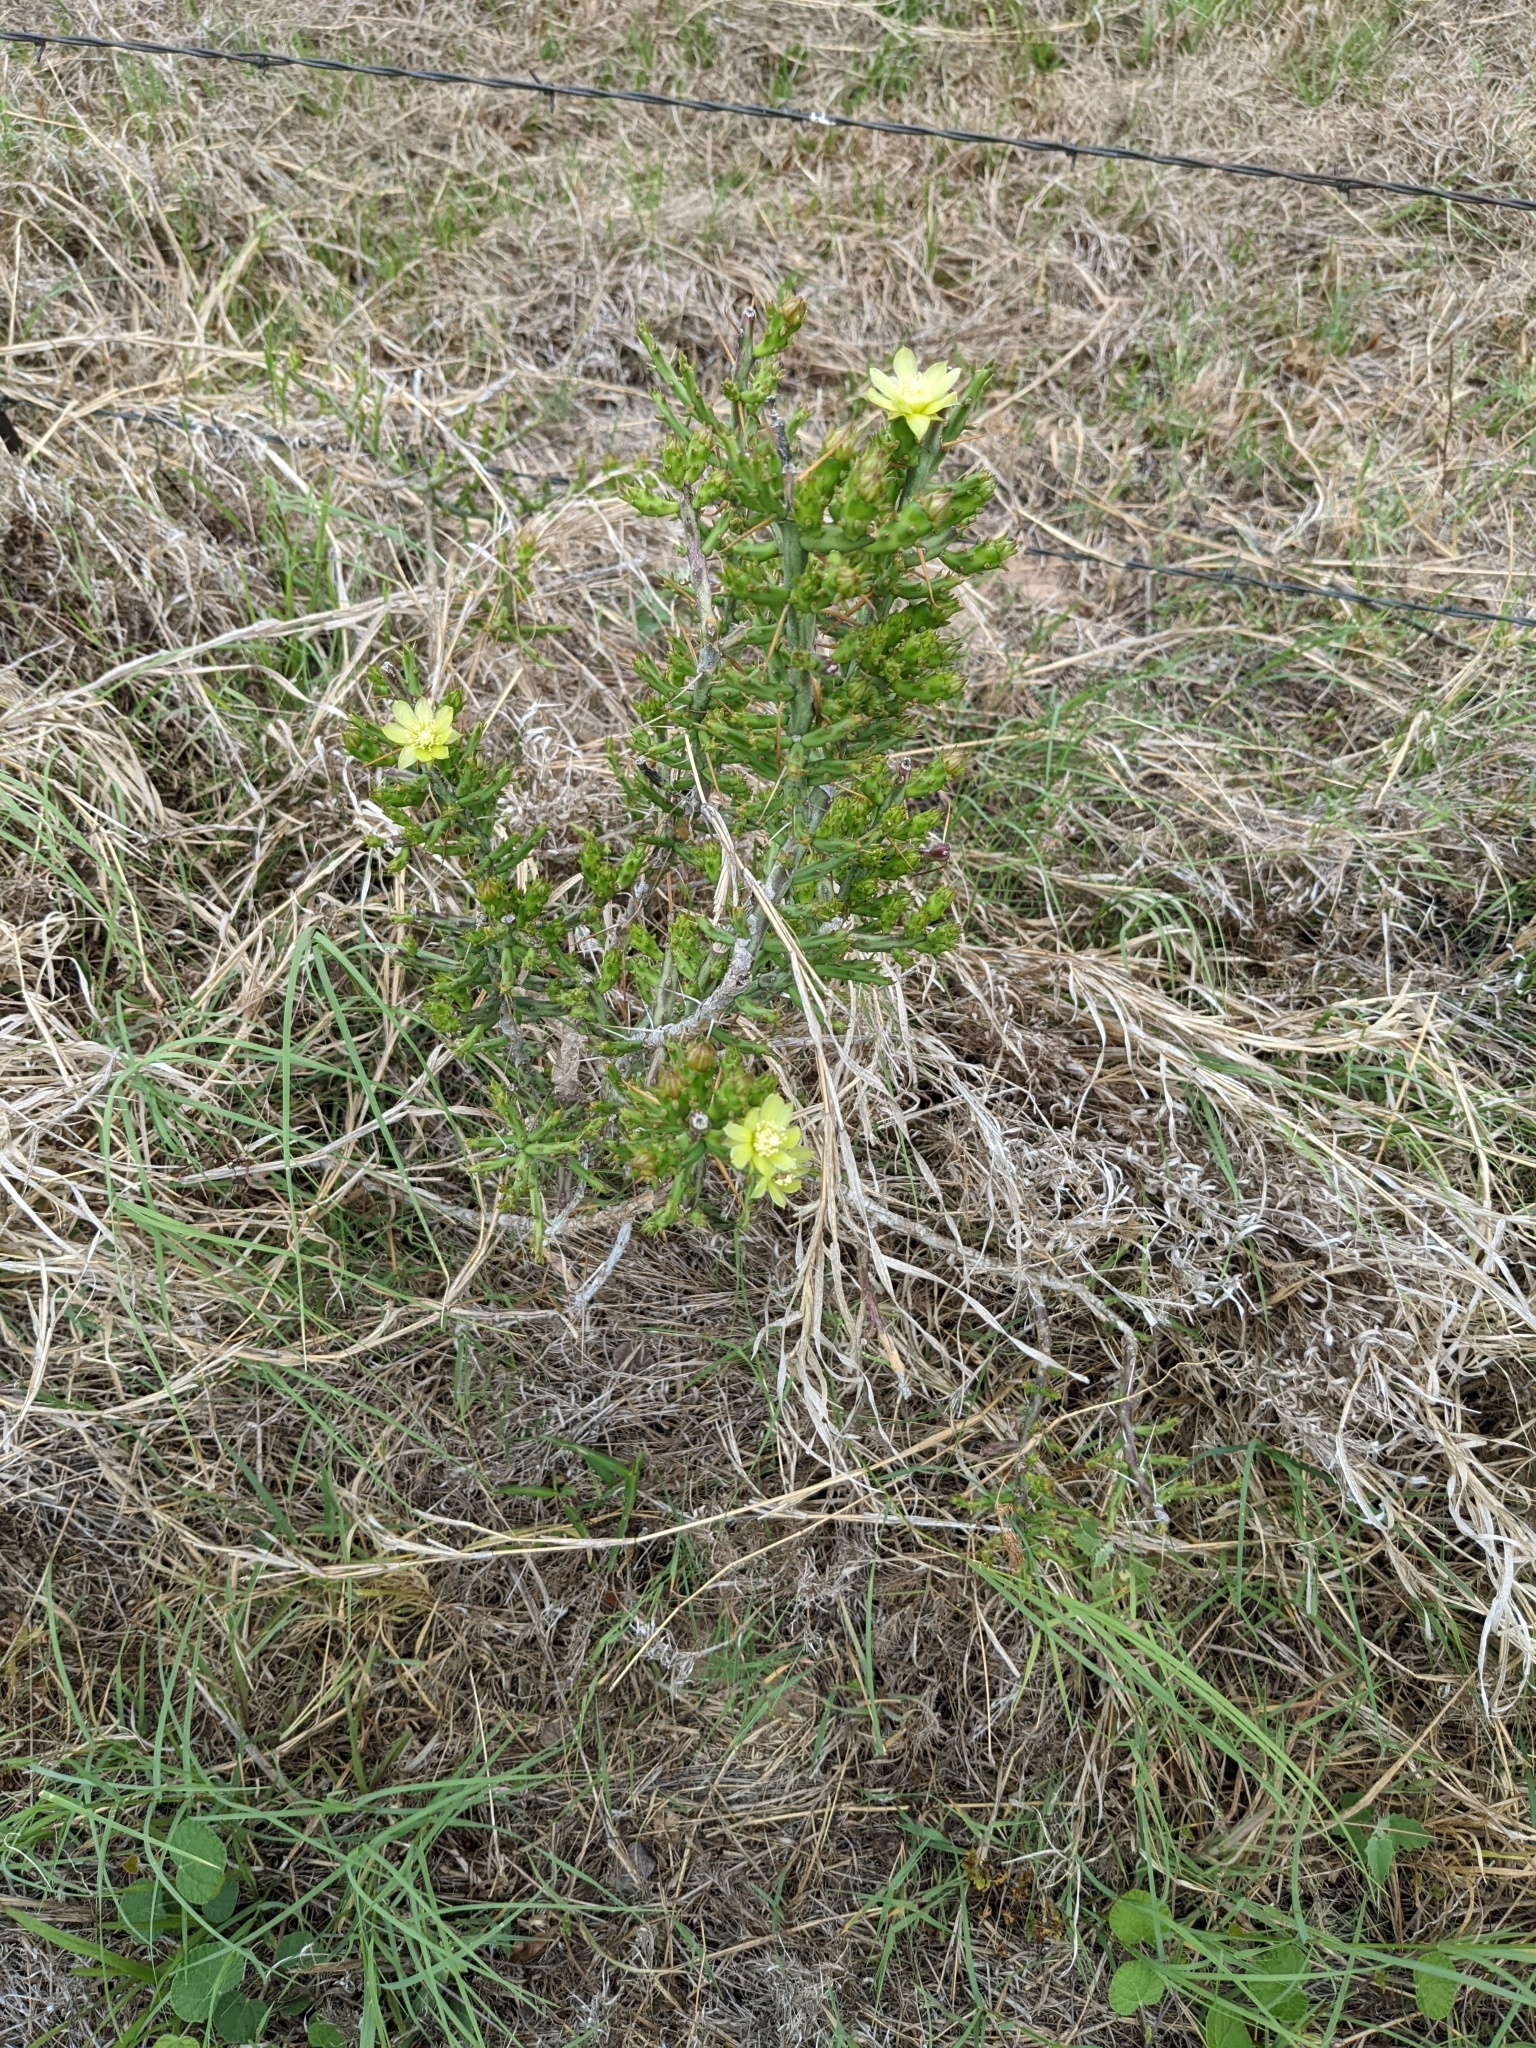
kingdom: Plantae
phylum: Tracheophyta
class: Magnoliopsida
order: Caryophyllales
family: Cactaceae
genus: Cylindropuntia
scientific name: Cylindropuntia leptocaulis
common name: Christmas cactus
